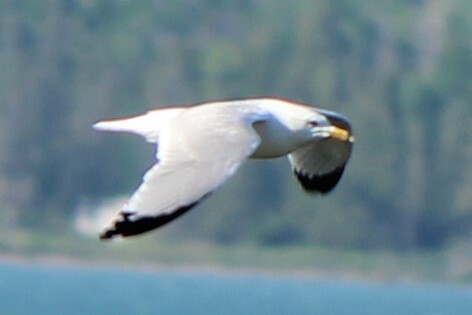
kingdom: Animalia
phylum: Chordata
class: Aves
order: Charadriiformes
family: Laridae
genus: Larus
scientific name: Larus delawarensis
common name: Ring-billed gull
